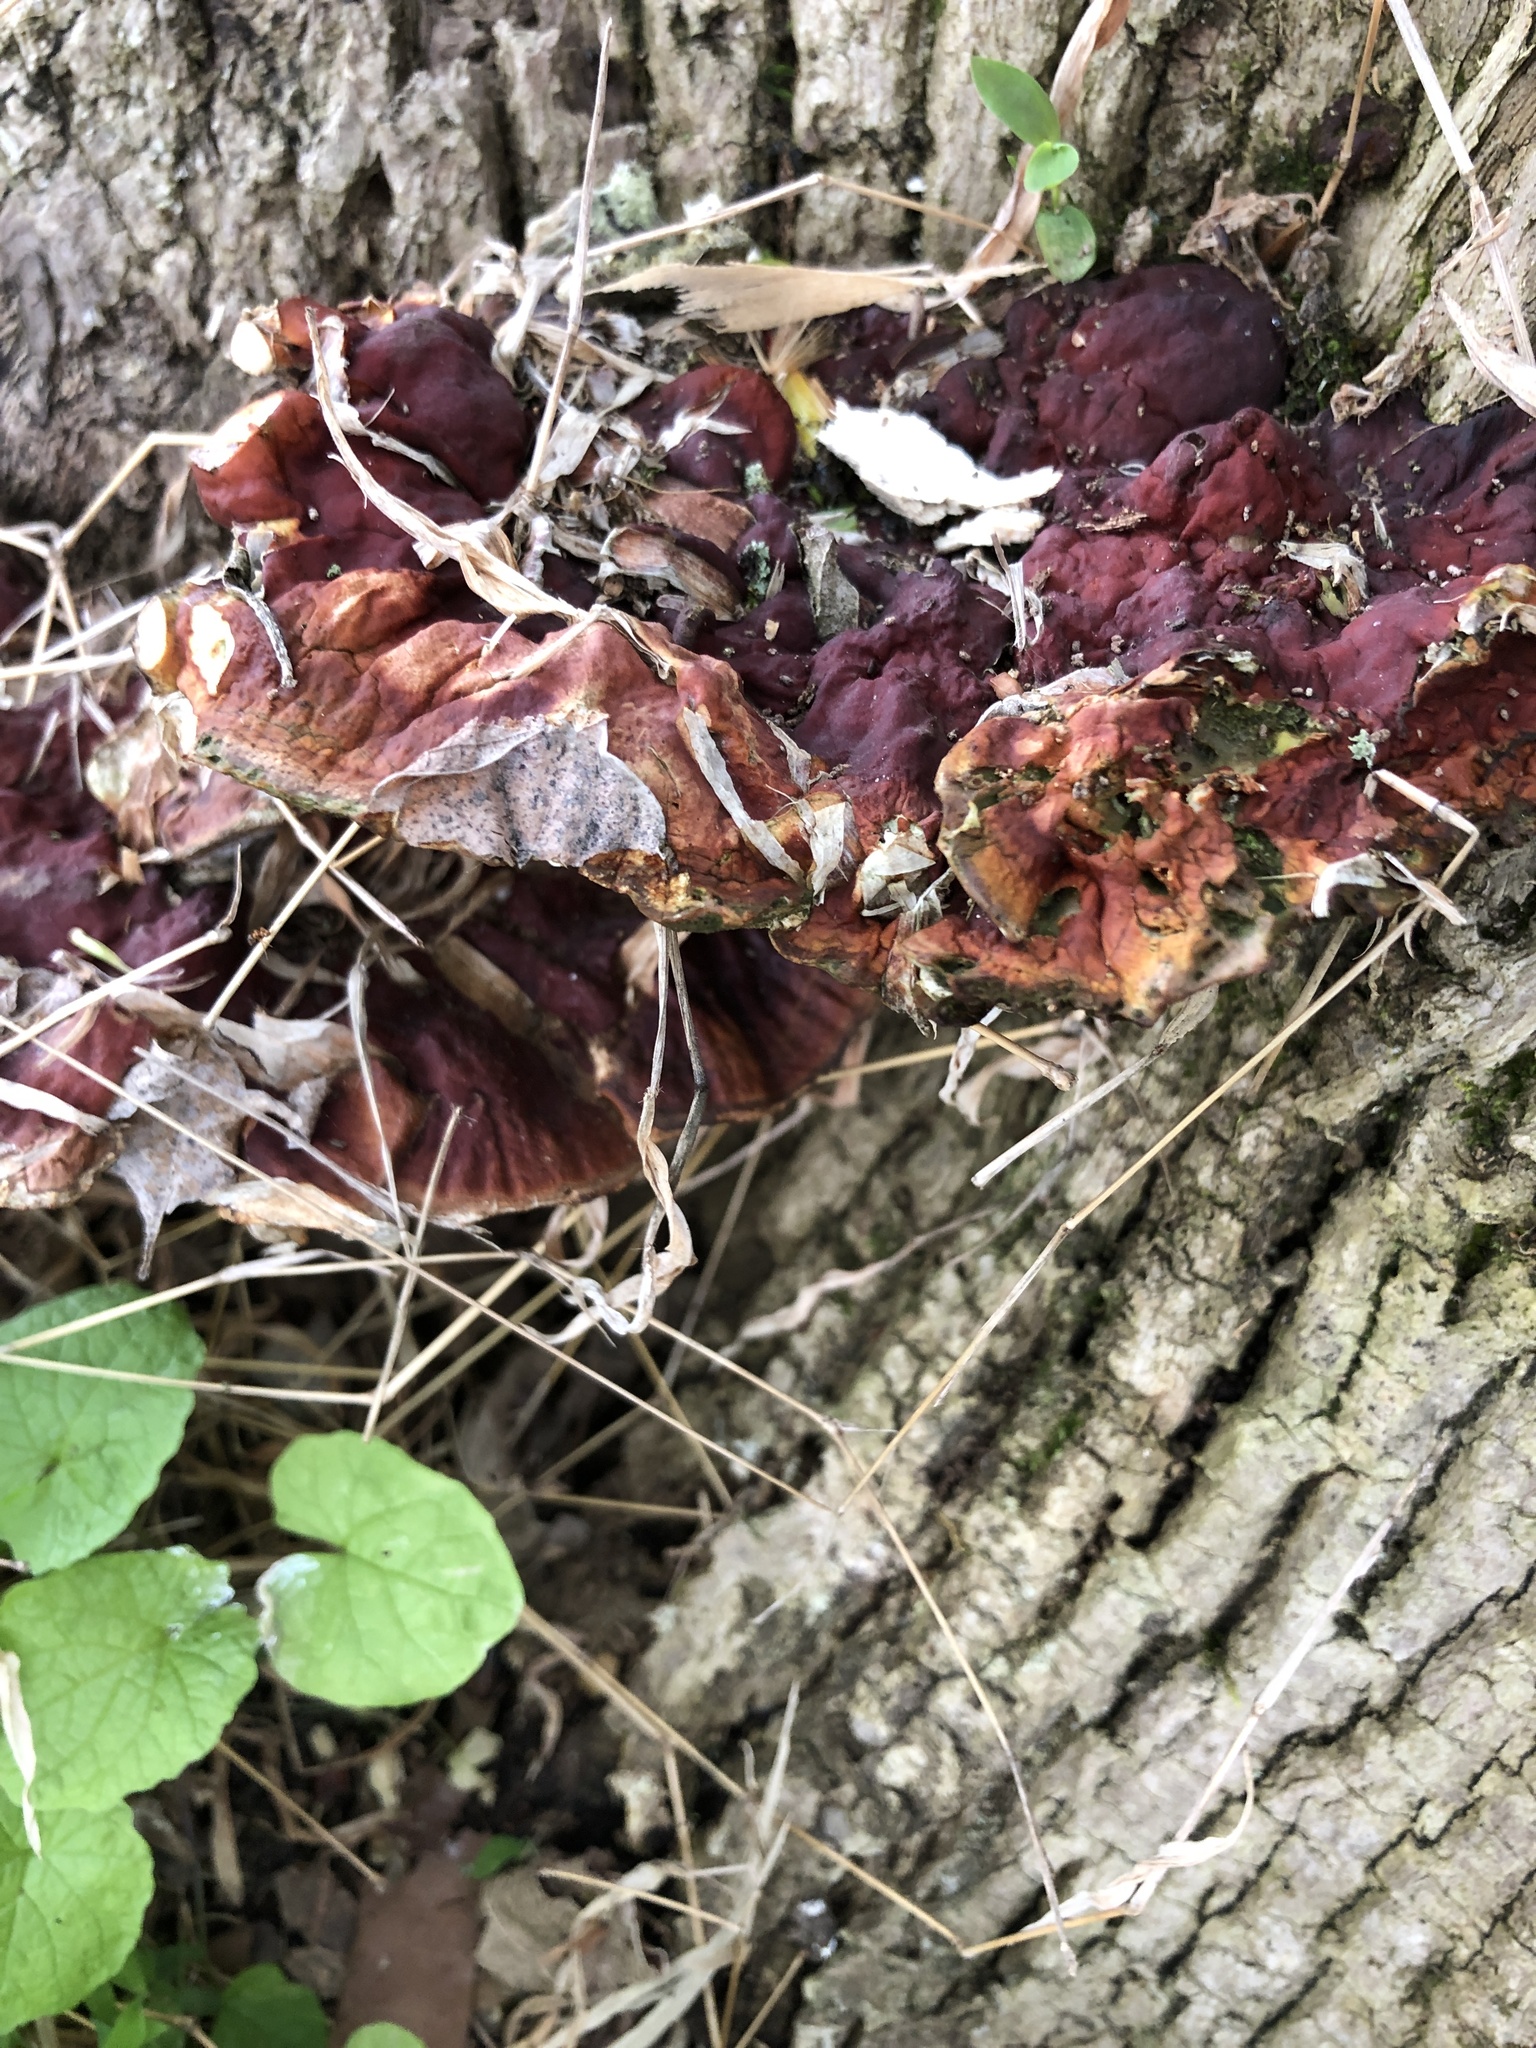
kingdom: Fungi
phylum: Basidiomycota
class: Agaricomycetes
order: Polyporales
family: Polyporaceae
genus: Ganoderma
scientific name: Ganoderma resinaceum
